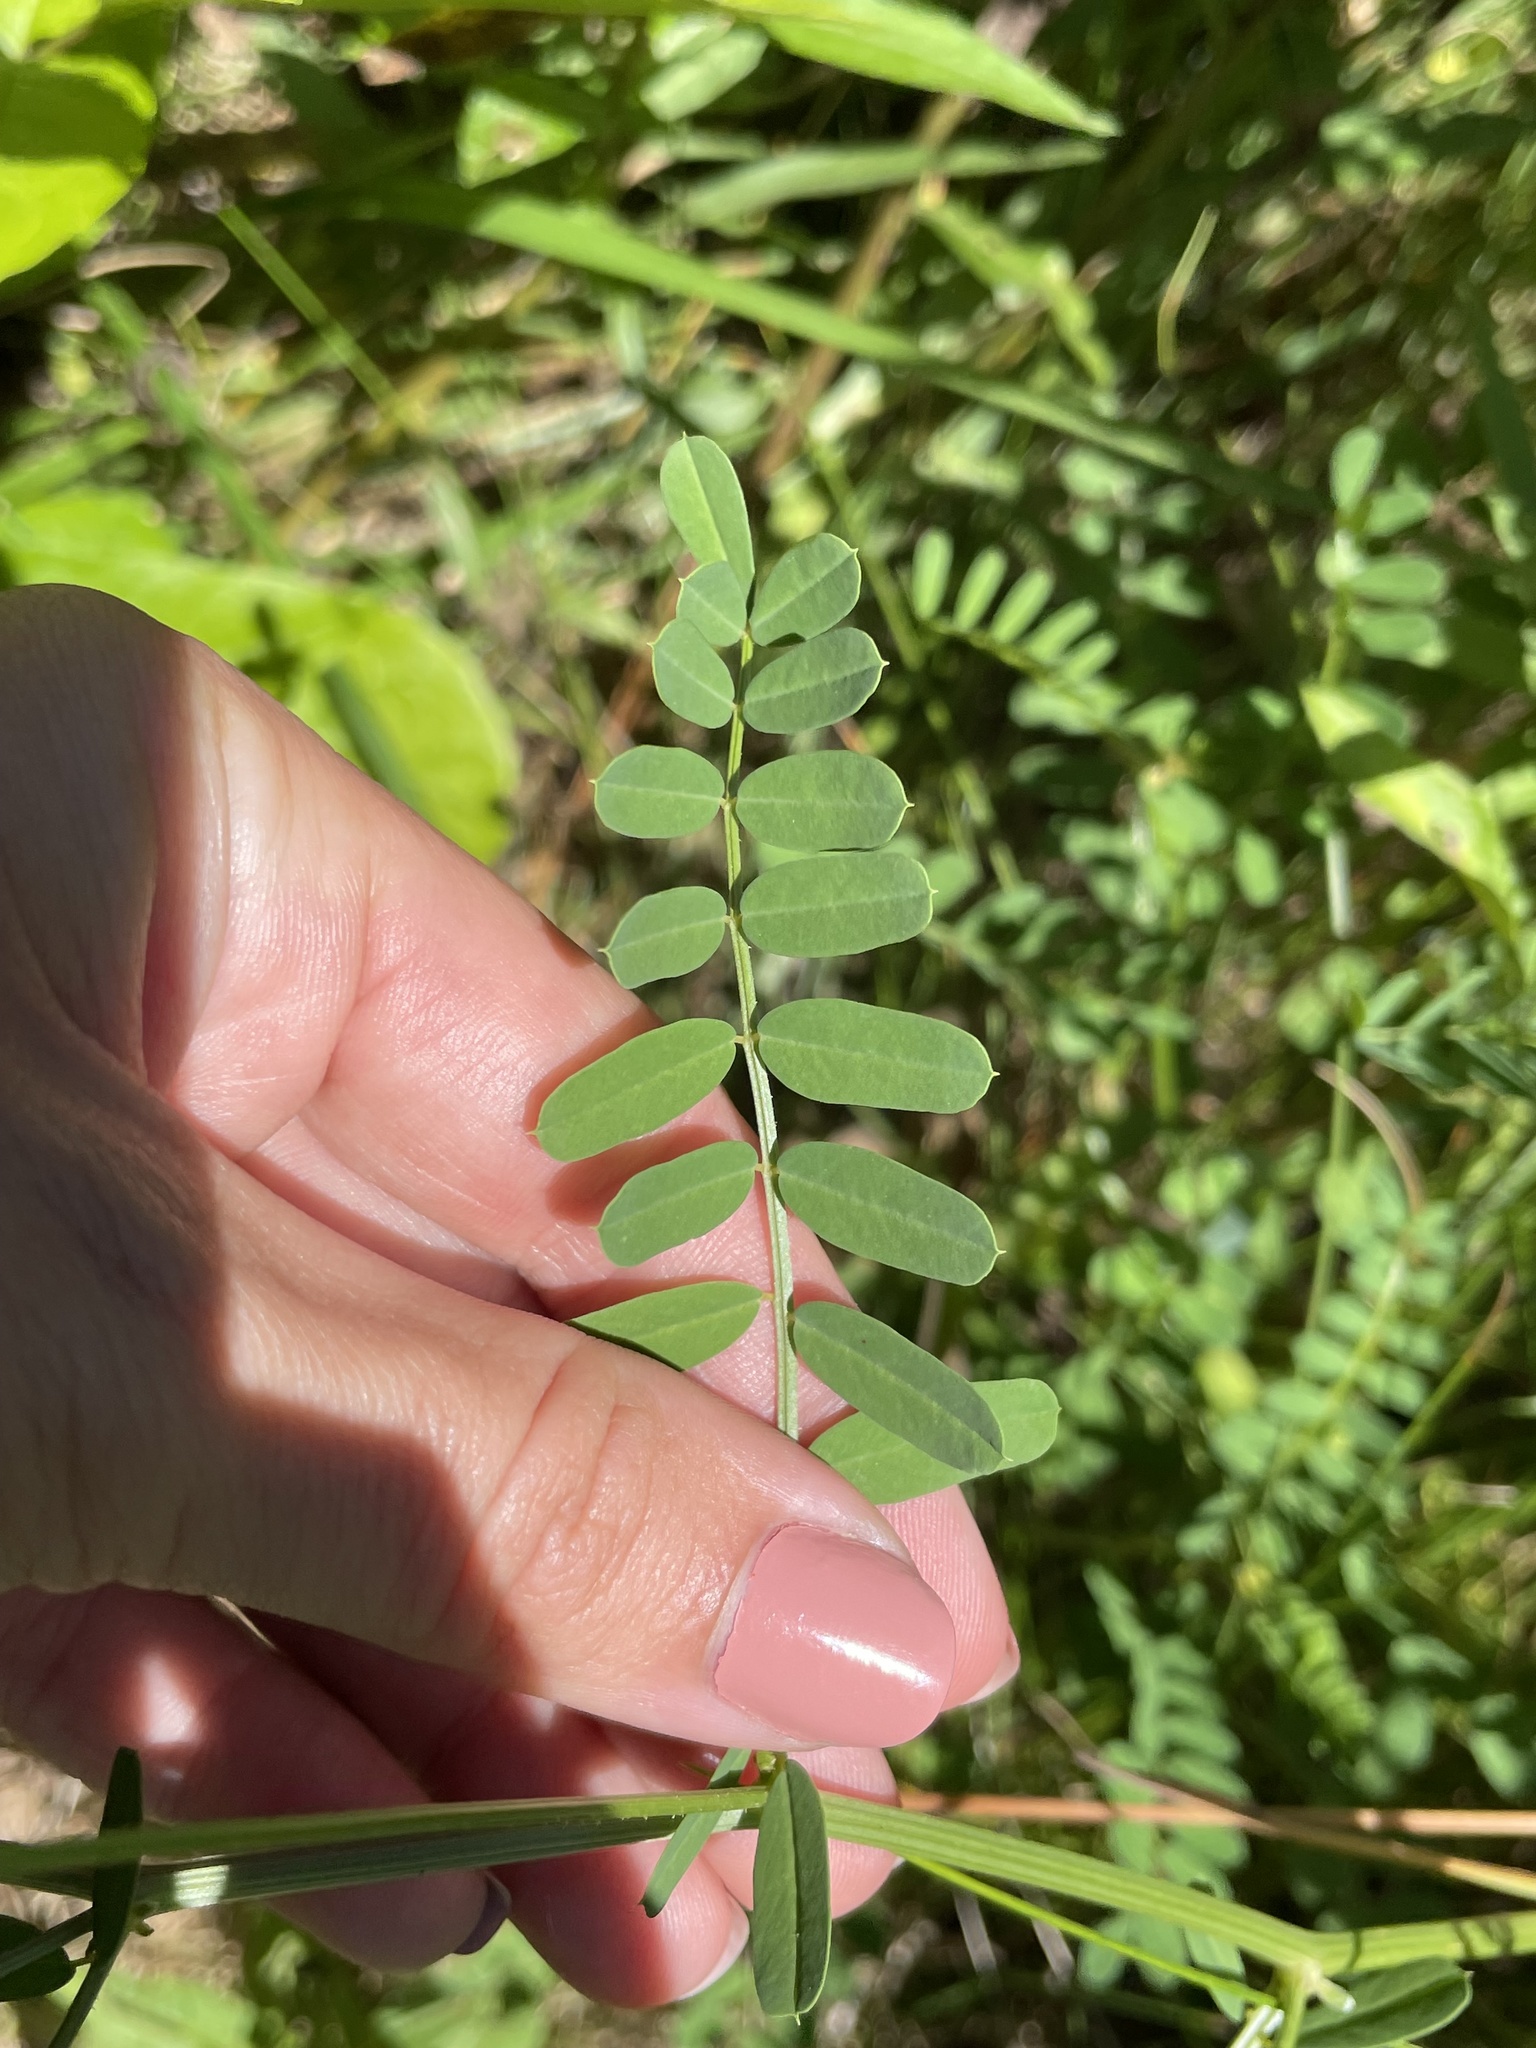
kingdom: Plantae
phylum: Tracheophyta
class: Magnoliopsida
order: Fabales
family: Fabaceae
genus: Coronilla
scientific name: Coronilla varia
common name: Crownvetch
